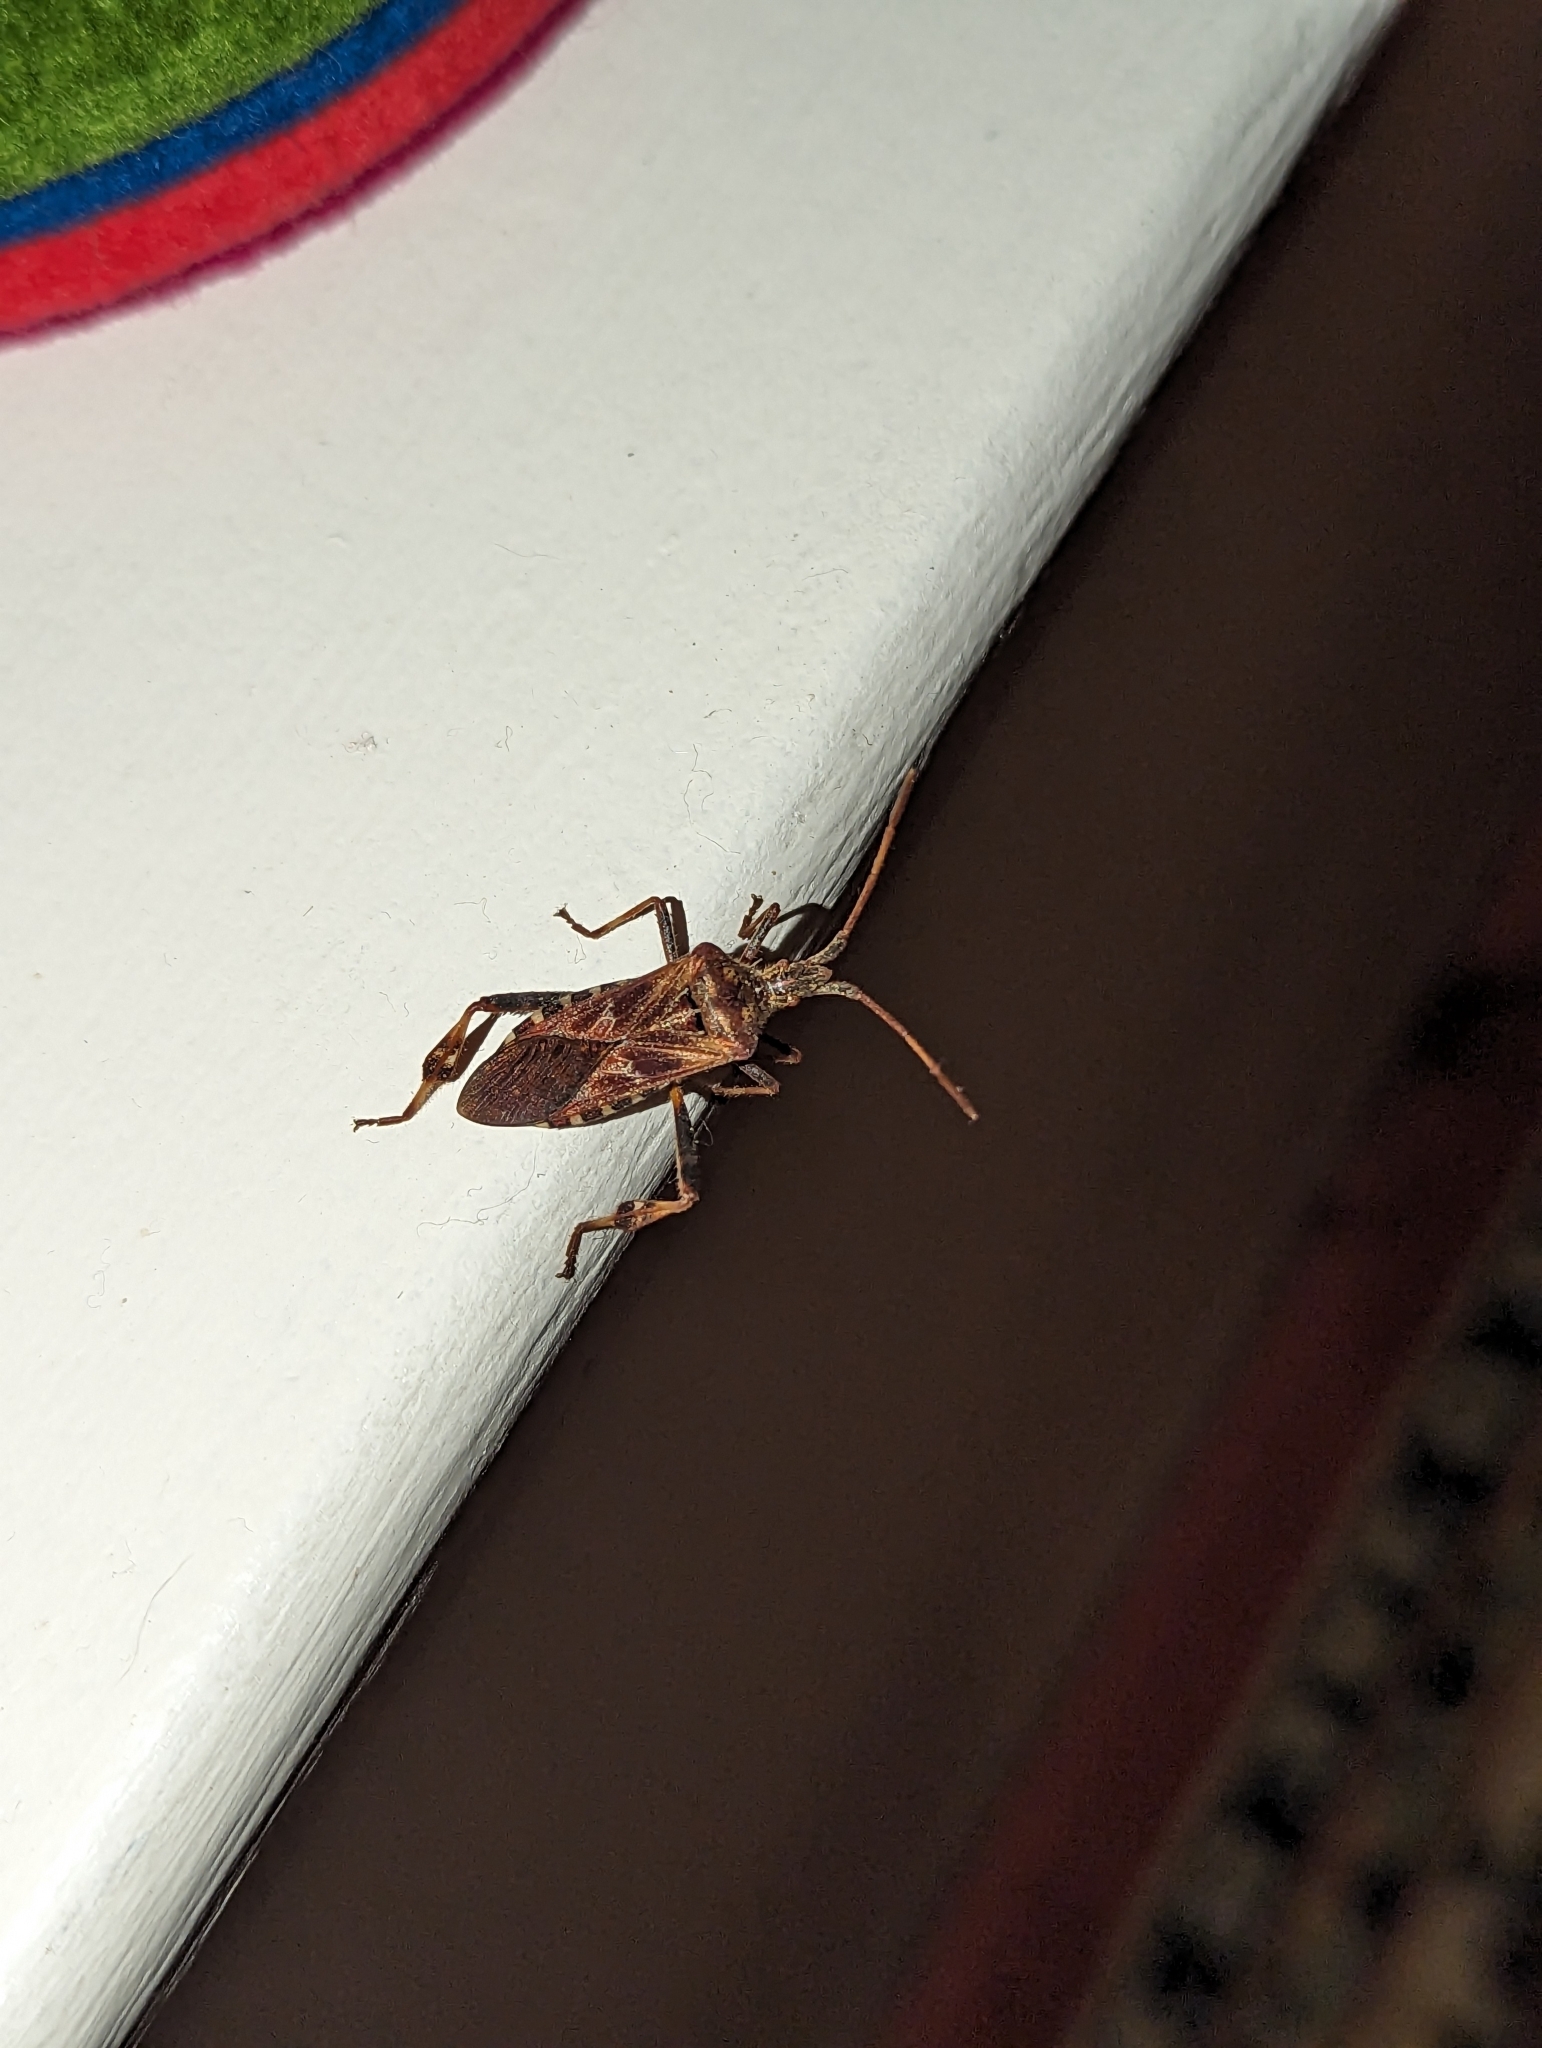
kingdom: Animalia
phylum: Arthropoda
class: Insecta
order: Hemiptera
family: Coreidae
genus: Leptoglossus
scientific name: Leptoglossus occidentalis
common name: Western conifer-seed bug
